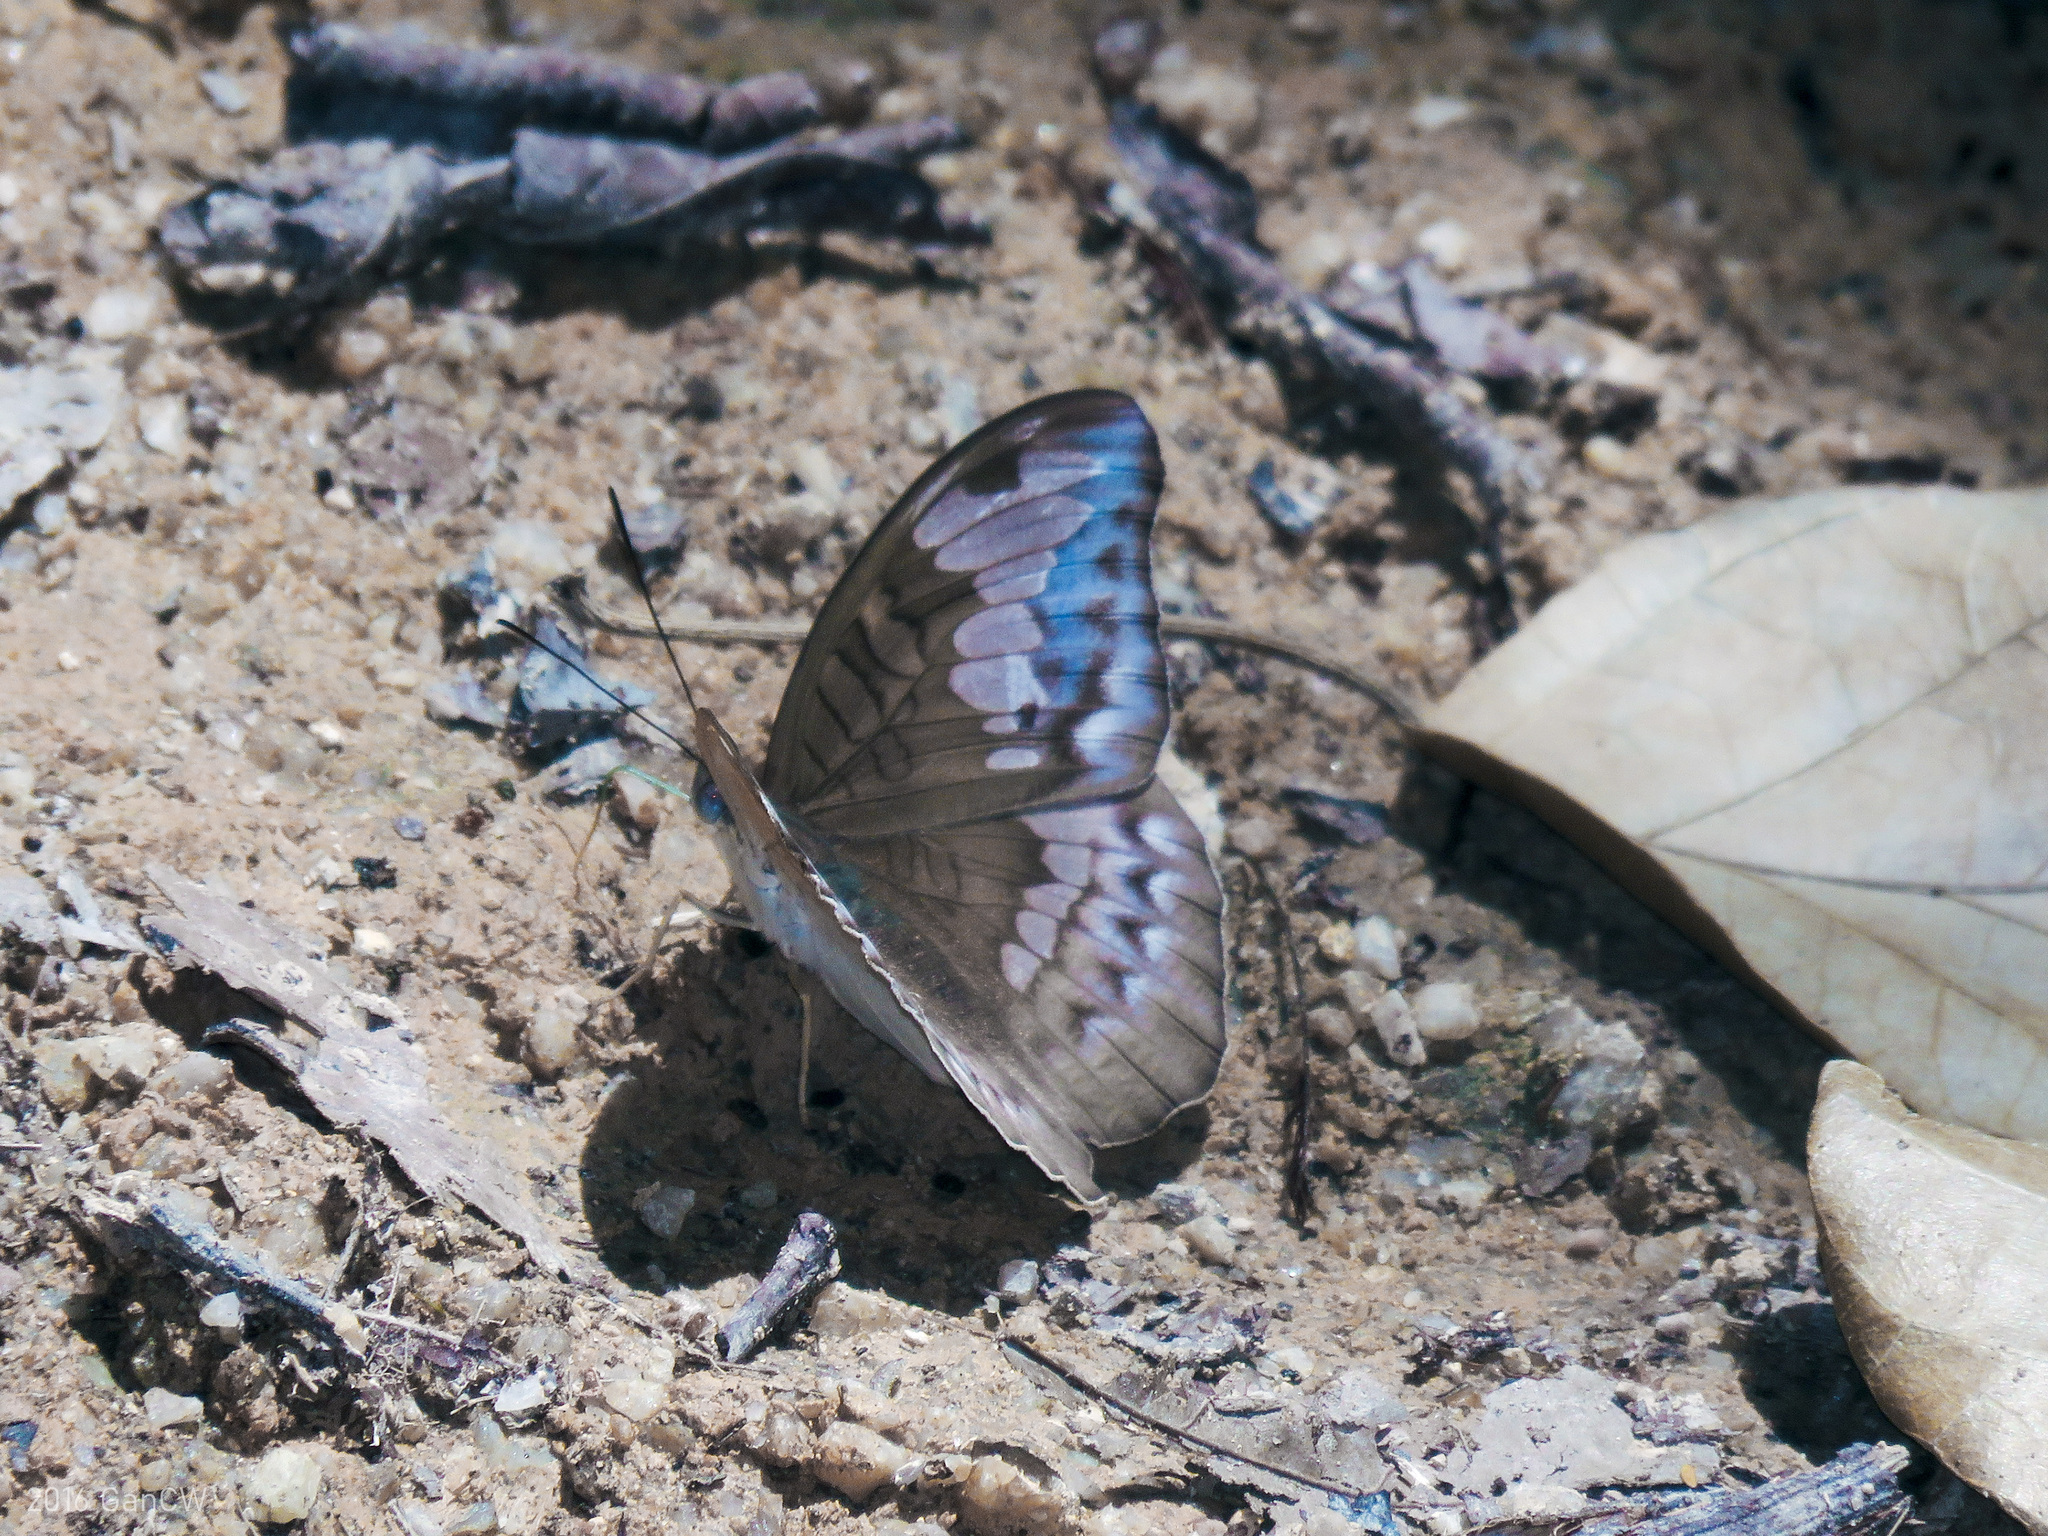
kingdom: Animalia
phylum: Arthropoda
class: Insecta
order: Lepidoptera
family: Nymphalidae
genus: Tanaecia
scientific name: Tanaecia godartii
